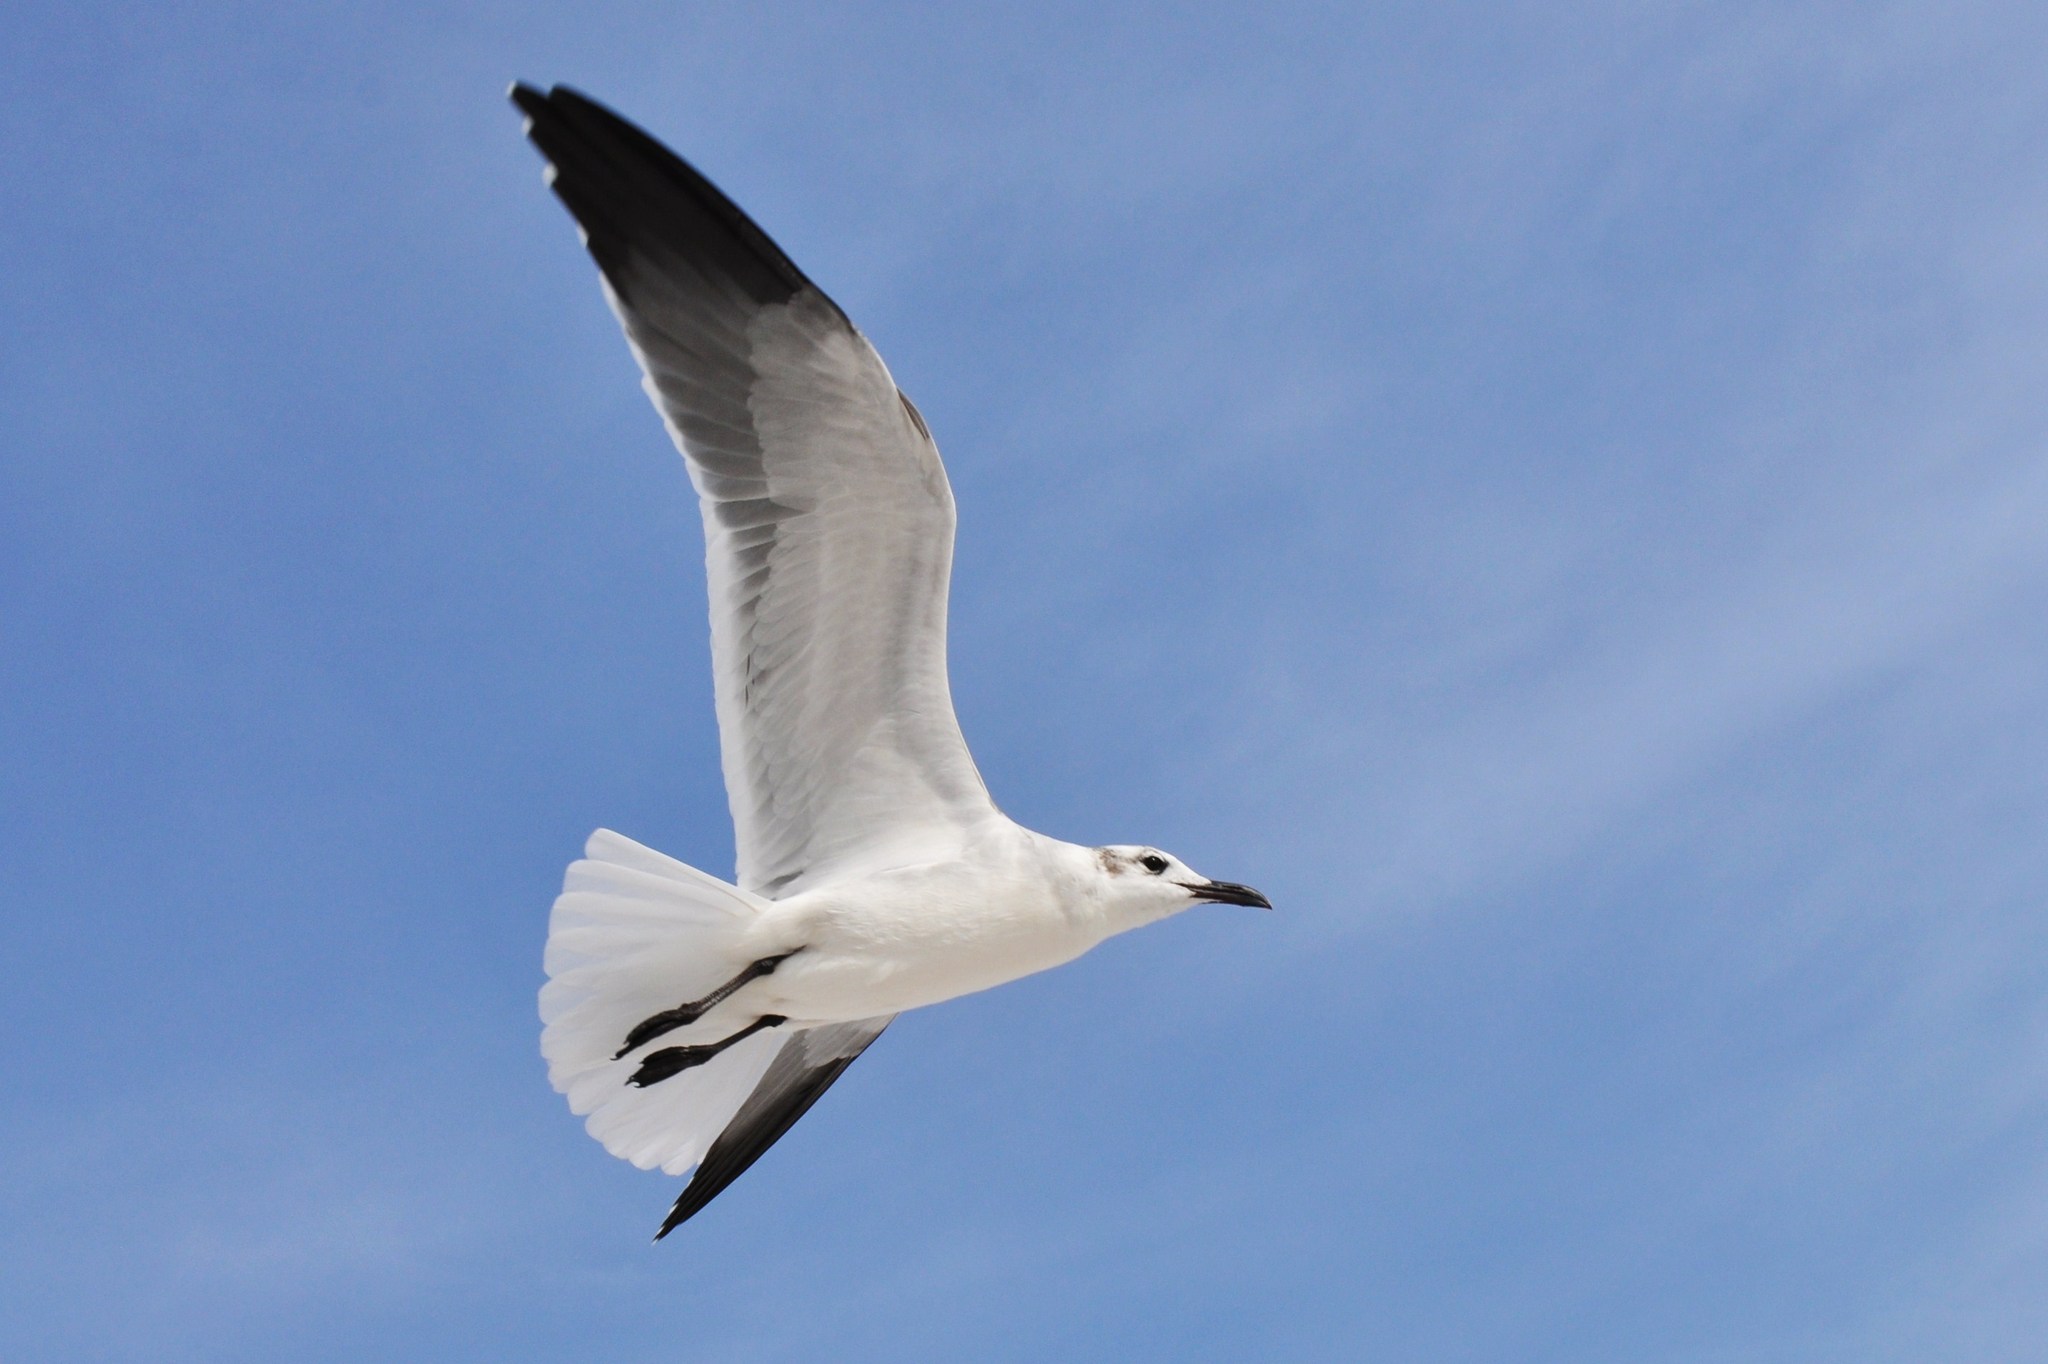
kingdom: Animalia
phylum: Chordata
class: Aves
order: Charadriiformes
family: Laridae
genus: Leucophaeus
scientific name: Leucophaeus atricilla
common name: Laughing gull
